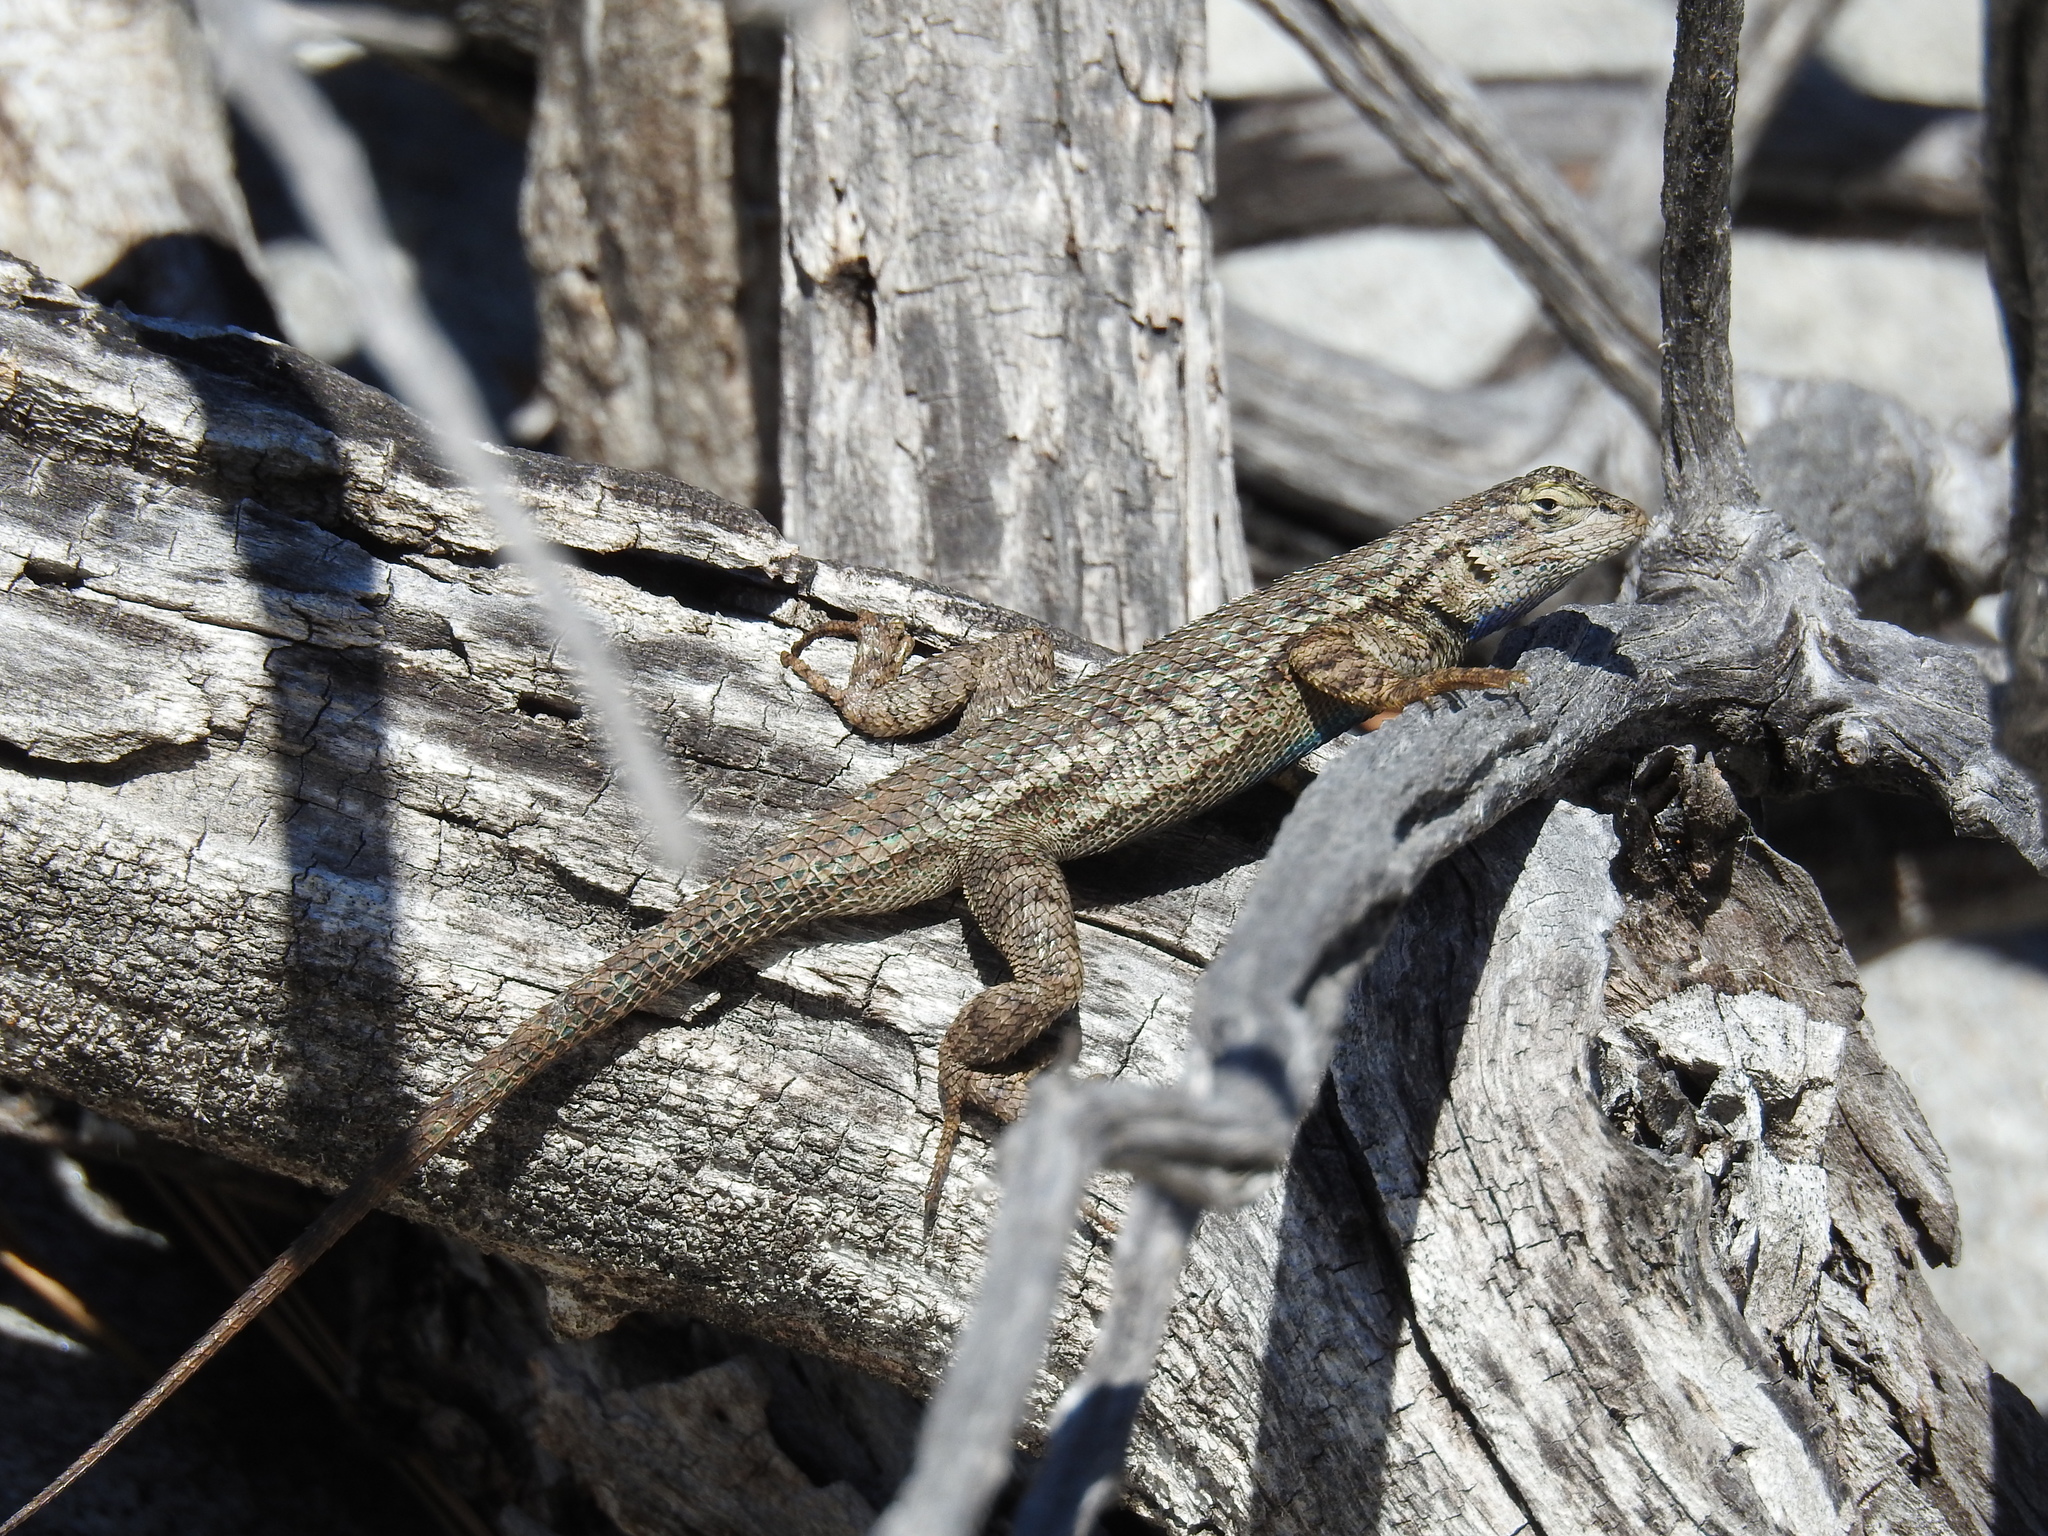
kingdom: Animalia
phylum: Chordata
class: Squamata
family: Phrynosomatidae
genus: Sceloporus
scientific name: Sceloporus occidentalis
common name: Western fence lizard
